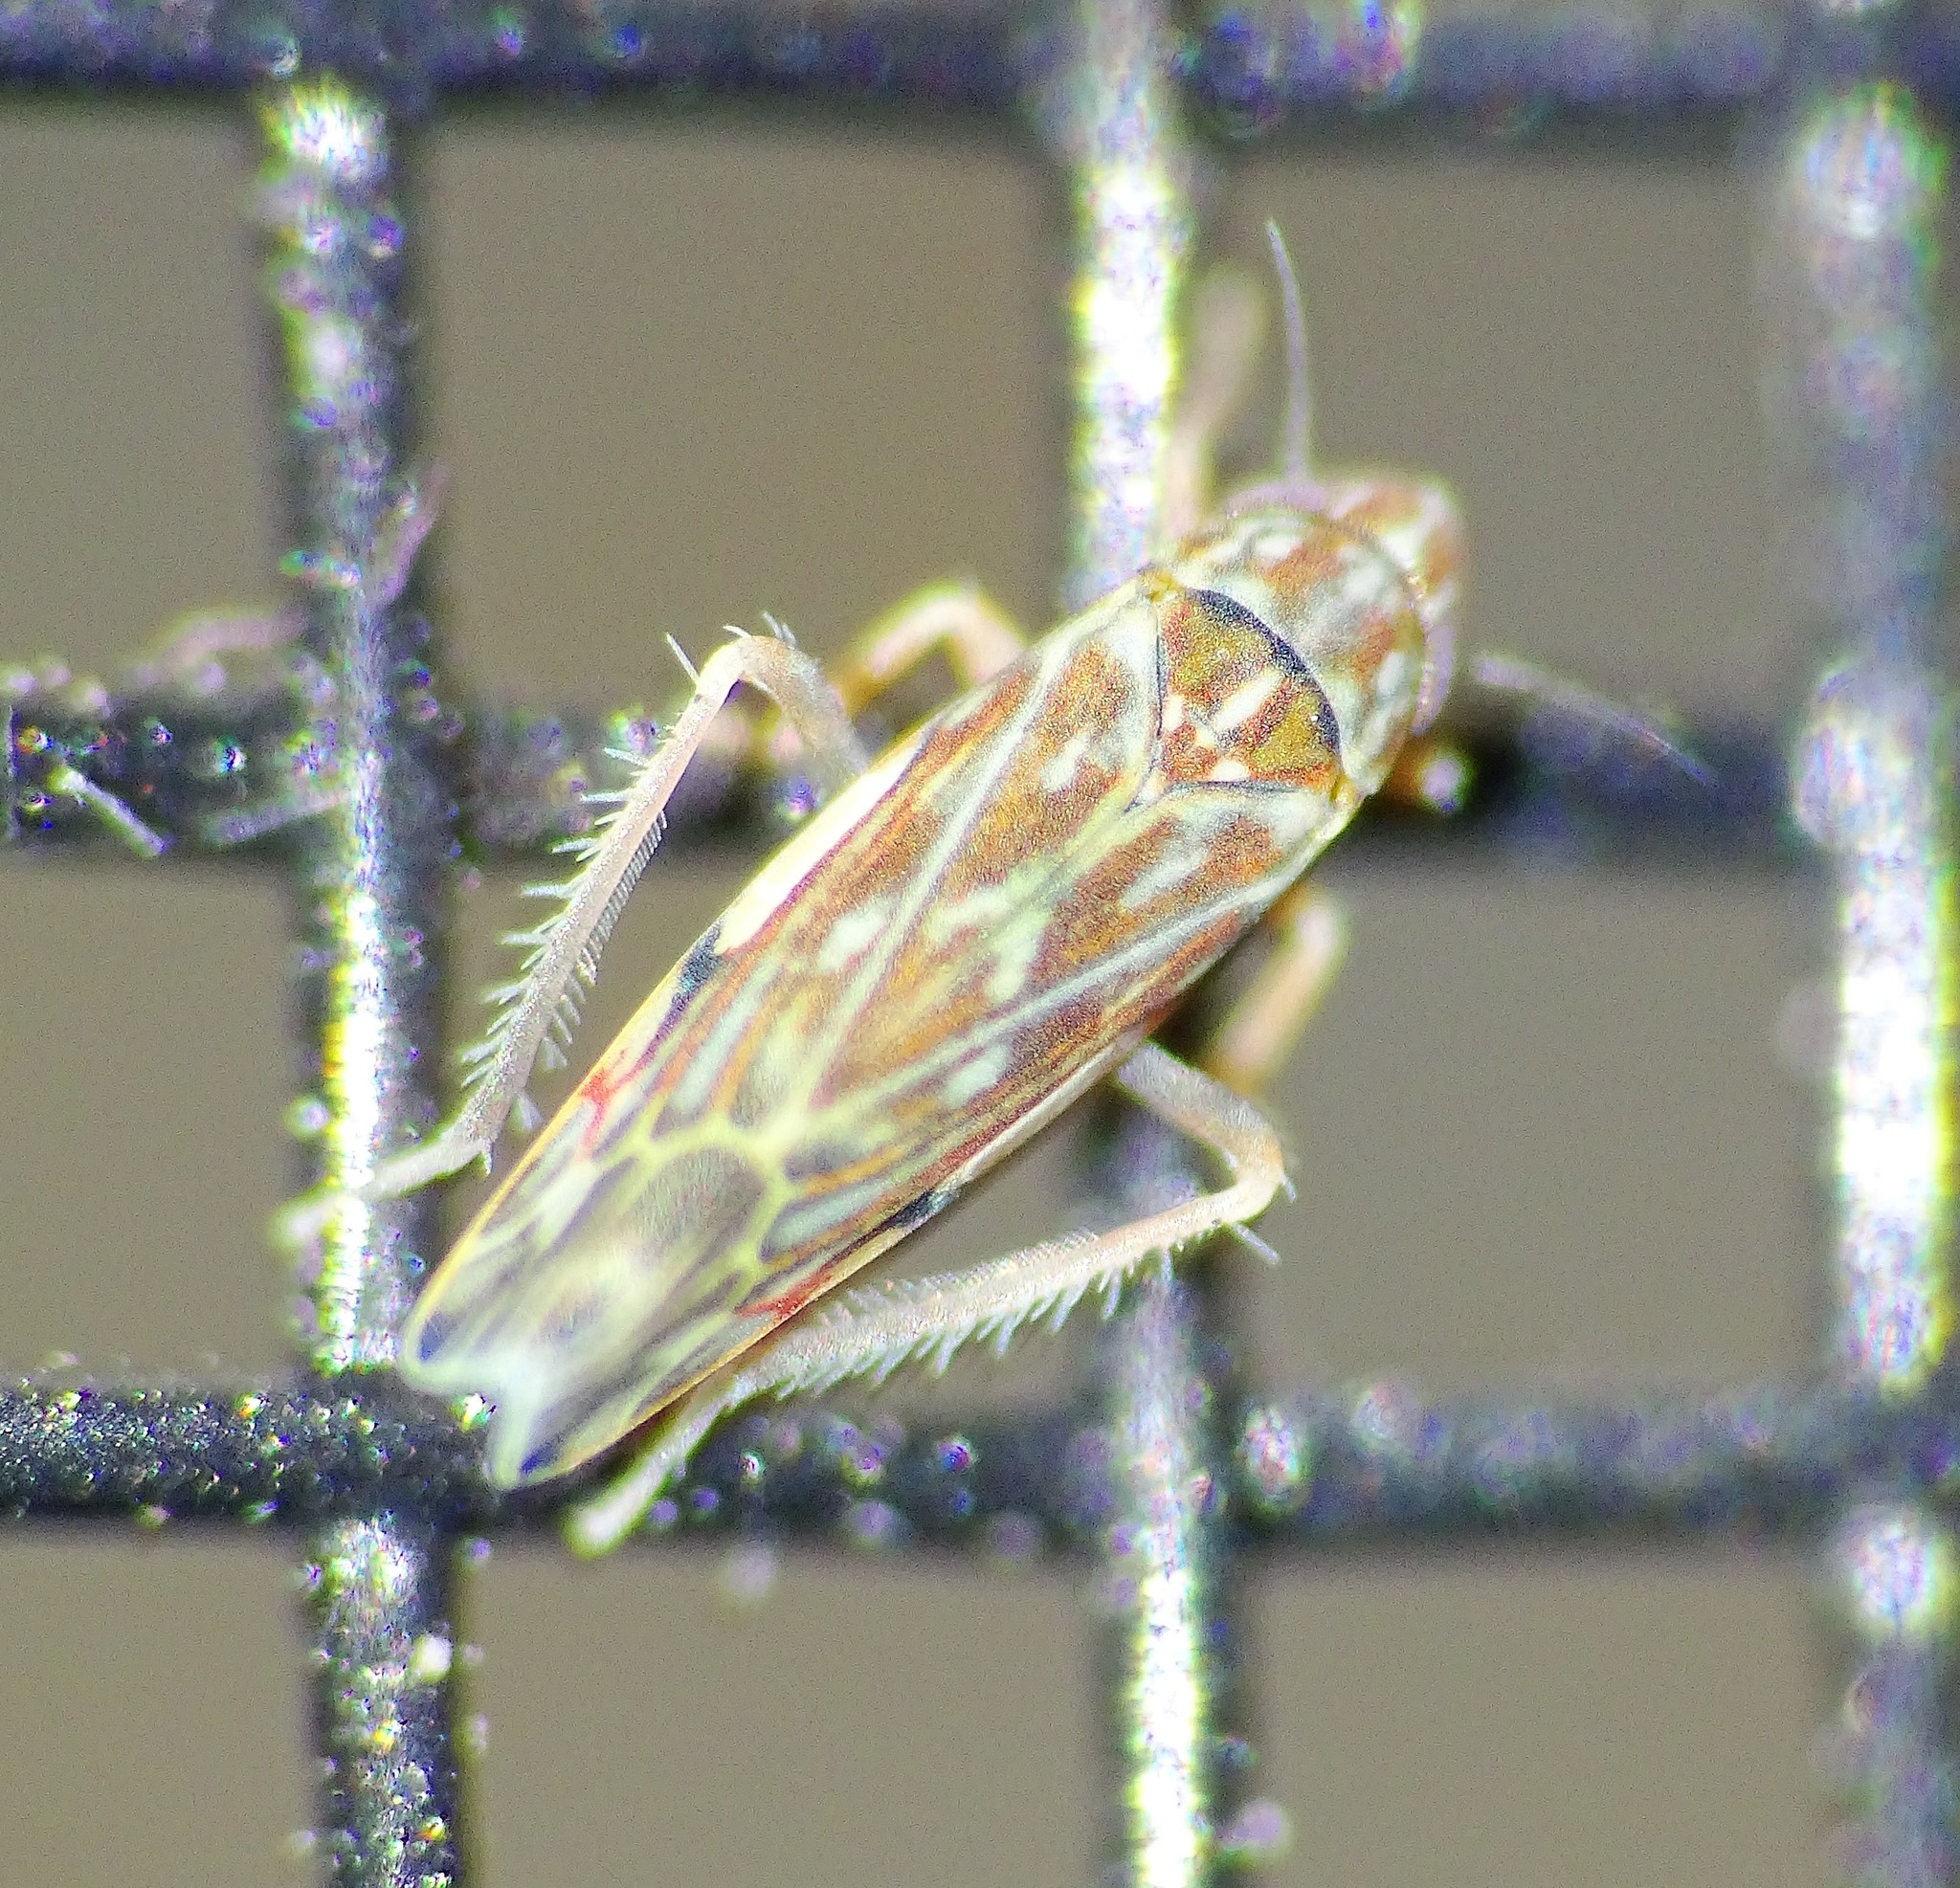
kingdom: Animalia
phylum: Arthropoda
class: Insecta
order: Hemiptera
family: Cicadellidae
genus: Erasmoneura
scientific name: Erasmoneura vulnerata
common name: The wounded leafhopper
